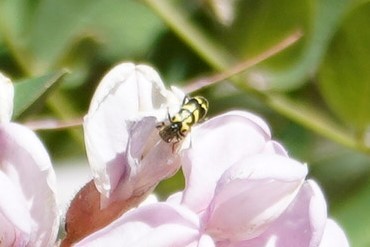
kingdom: Animalia
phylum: Arthropoda
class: Insecta
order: Coleoptera
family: Cleridae
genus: Trichodes
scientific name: Trichodes ornatus
